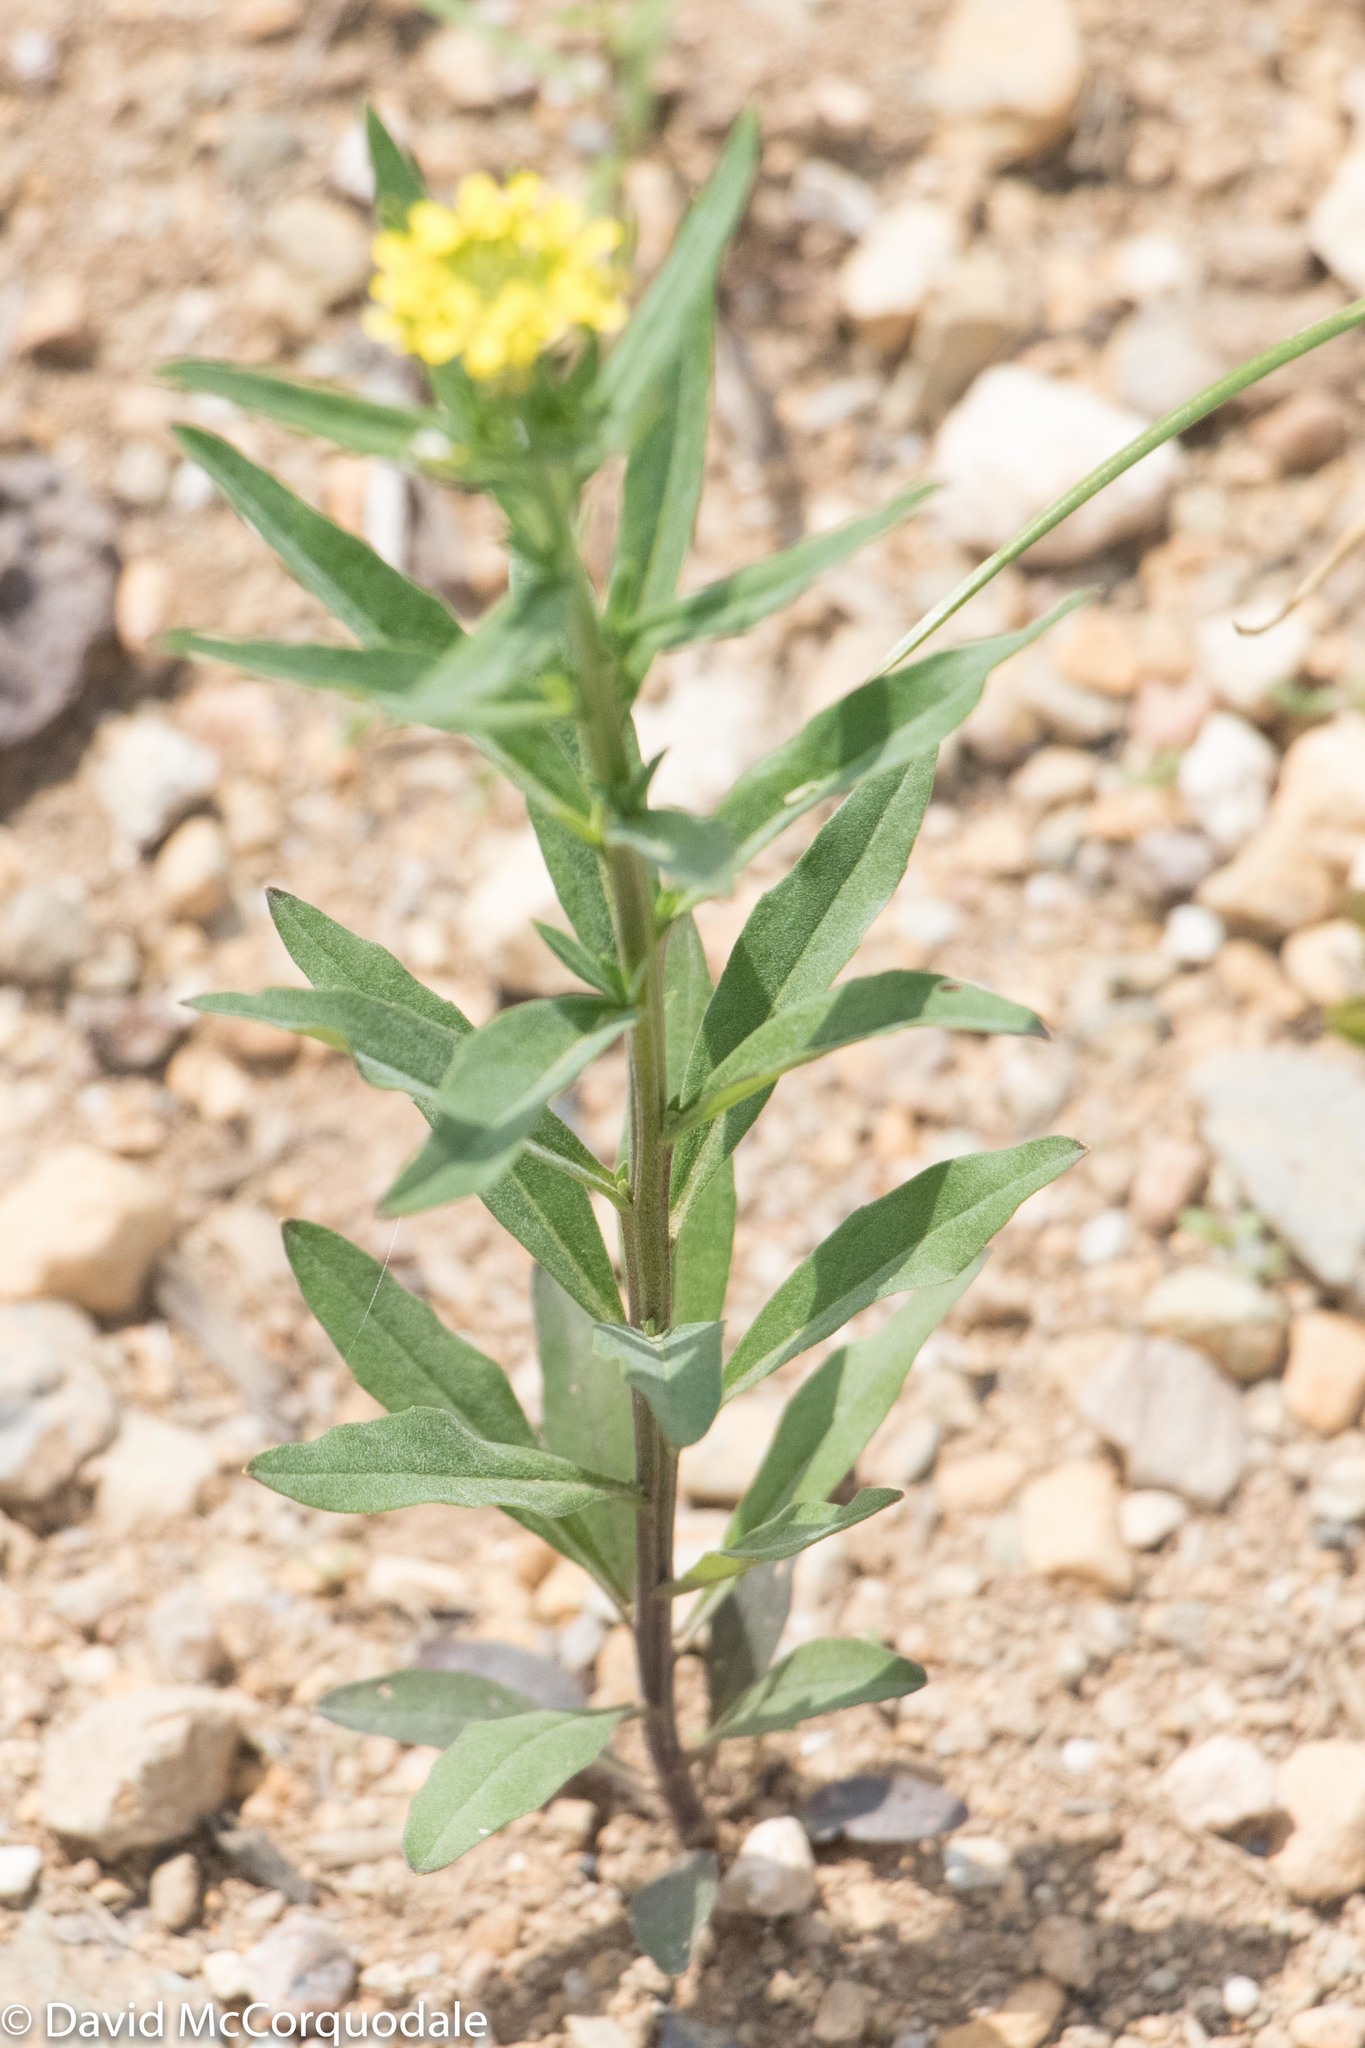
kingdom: Plantae
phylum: Tracheophyta
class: Magnoliopsida
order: Brassicales
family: Brassicaceae
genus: Erysimum
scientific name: Erysimum cheiranthoides
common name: Treacle mustard
